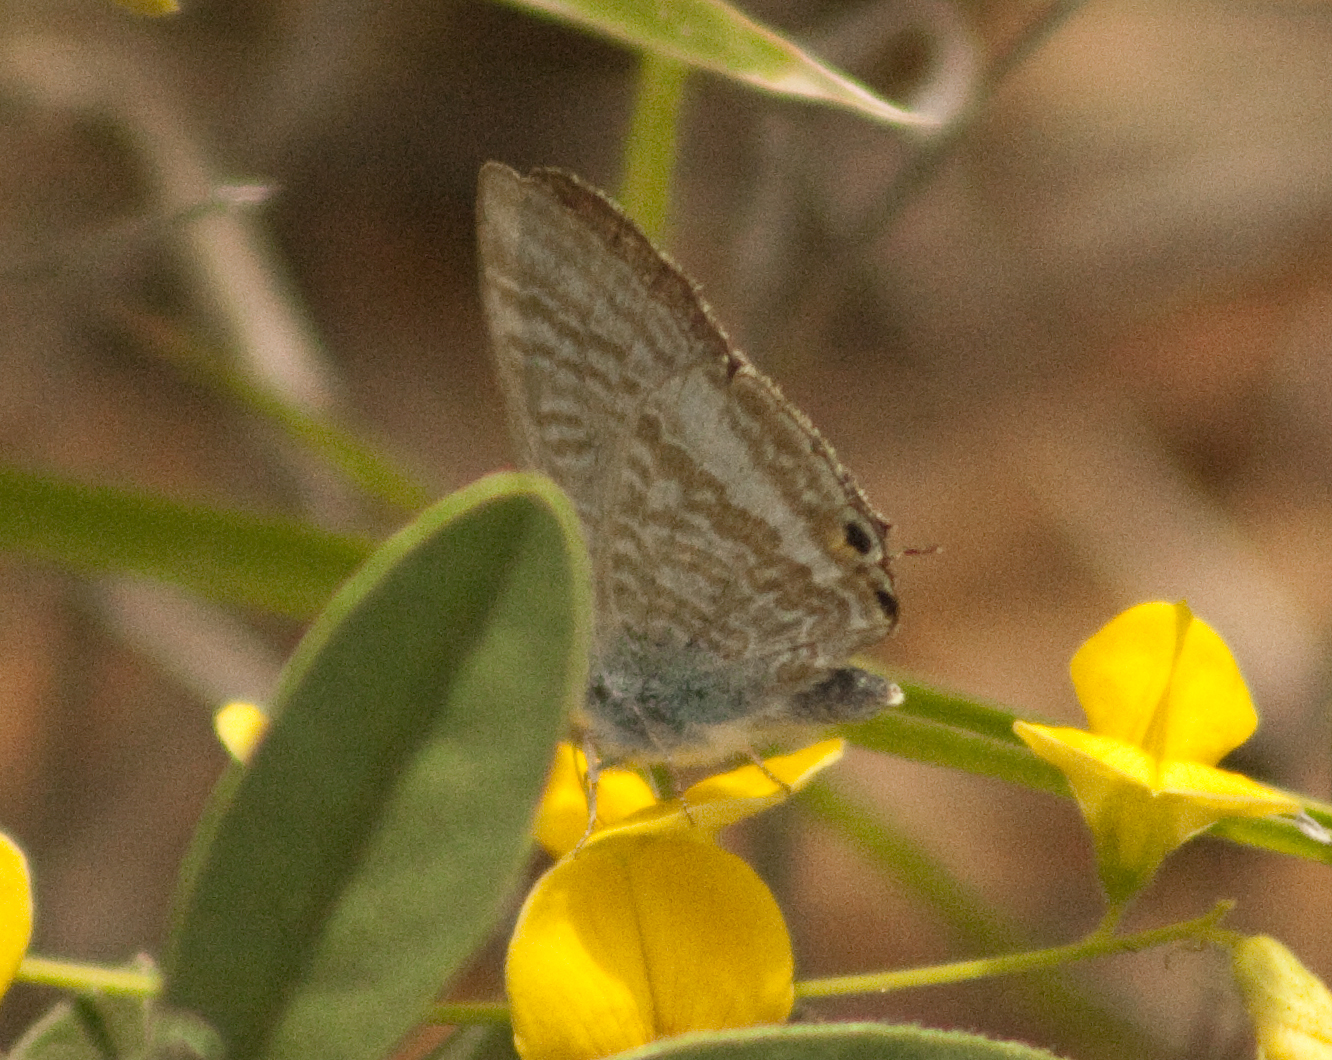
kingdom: Animalia
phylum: Arthropoda
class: Insecta
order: Lepidoptera
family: Lycaenidae
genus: Lampides
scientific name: Lampides boeticus
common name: Long-tailed blue
